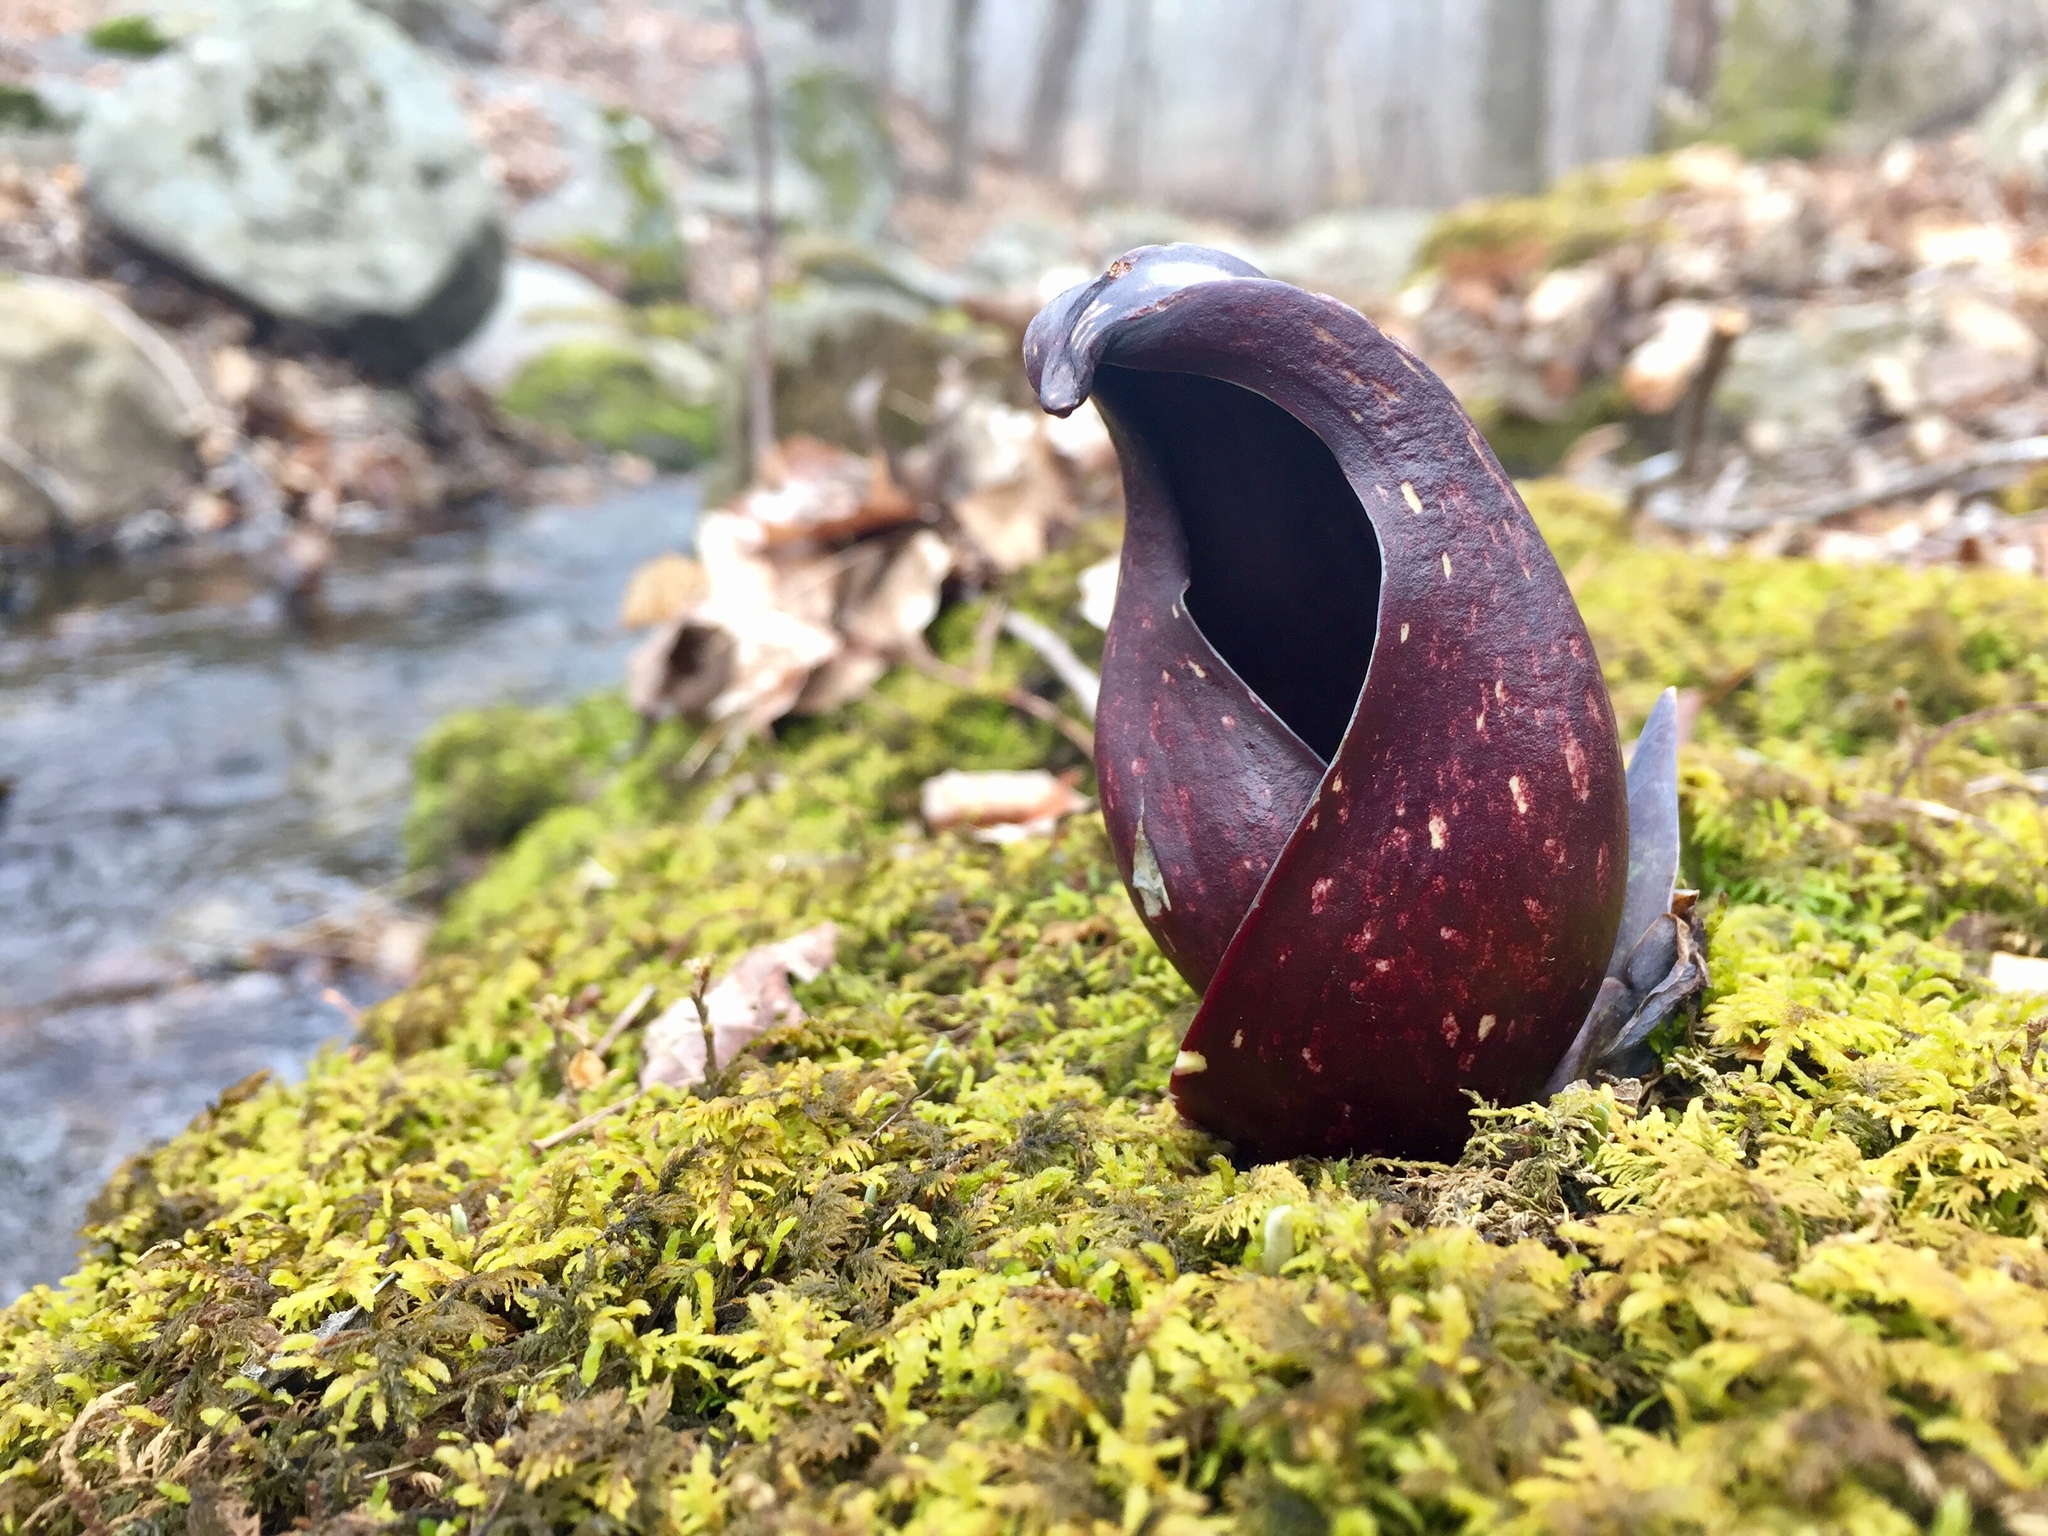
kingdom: Plantae
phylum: Tracheophyta
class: Liliopsida
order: Alismatales
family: Araceae
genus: Symplocarpus
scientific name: Symplocarpus foetidus
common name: Eastern skunk cabbage
